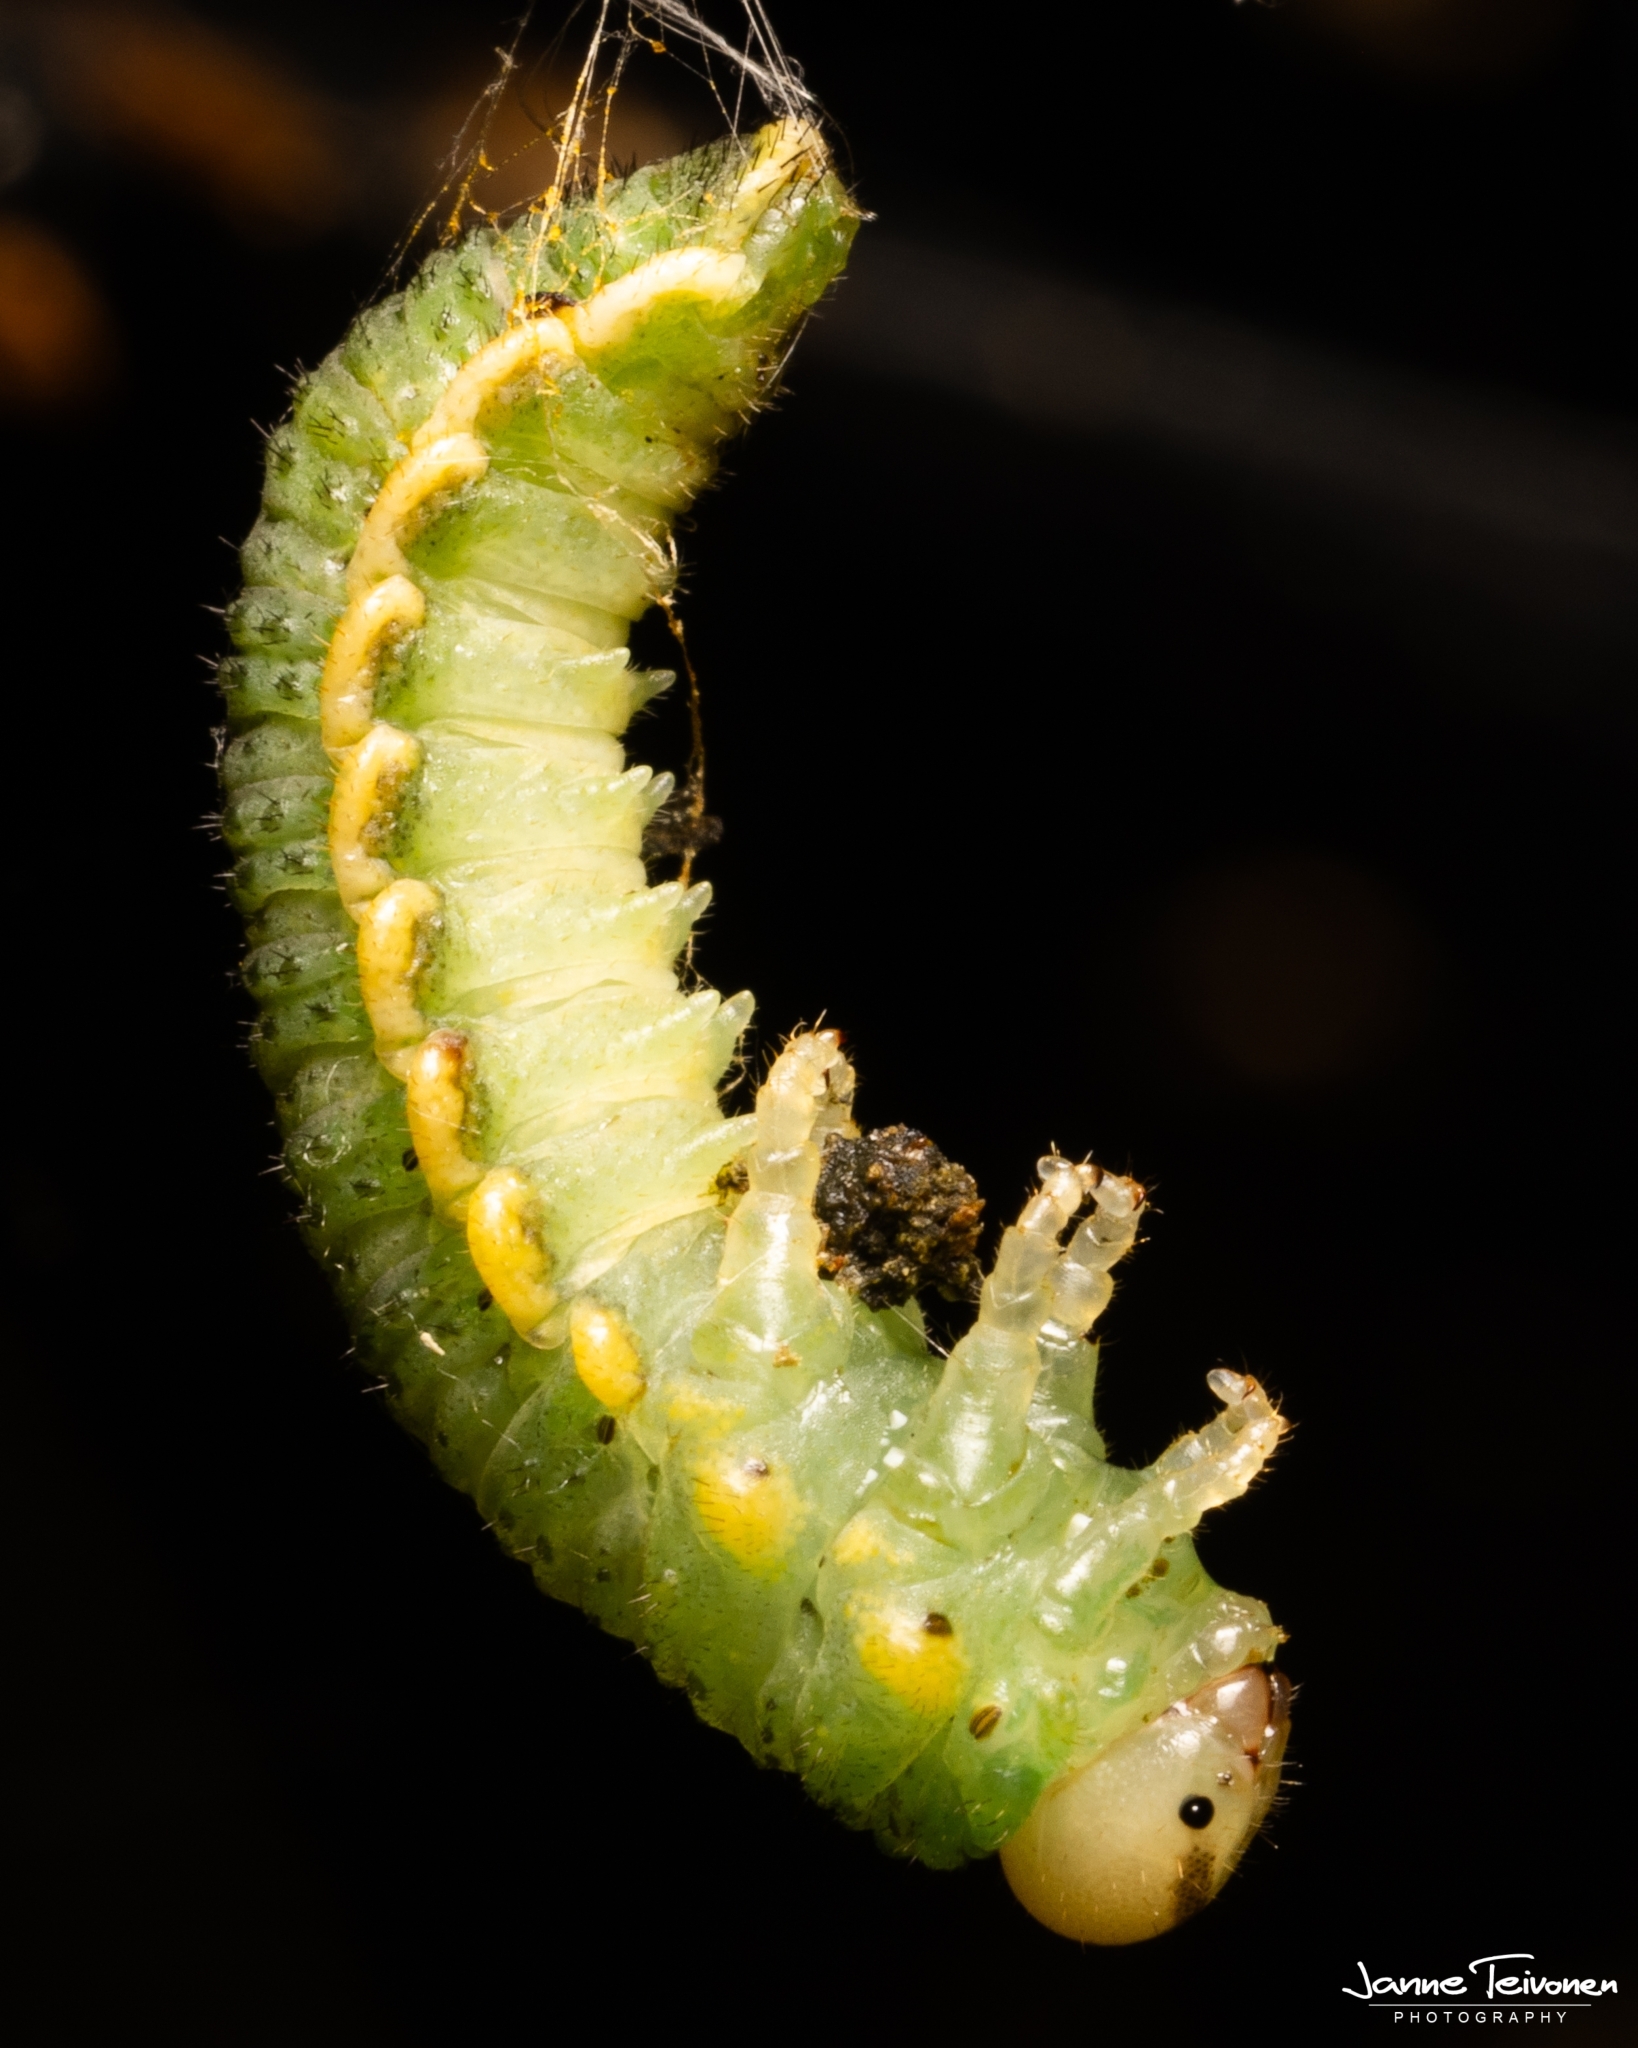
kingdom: Animalia
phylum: Arthropoda
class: Insecta
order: Hymenoptera
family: Argidae
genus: Arge
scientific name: Arge dimidiata
